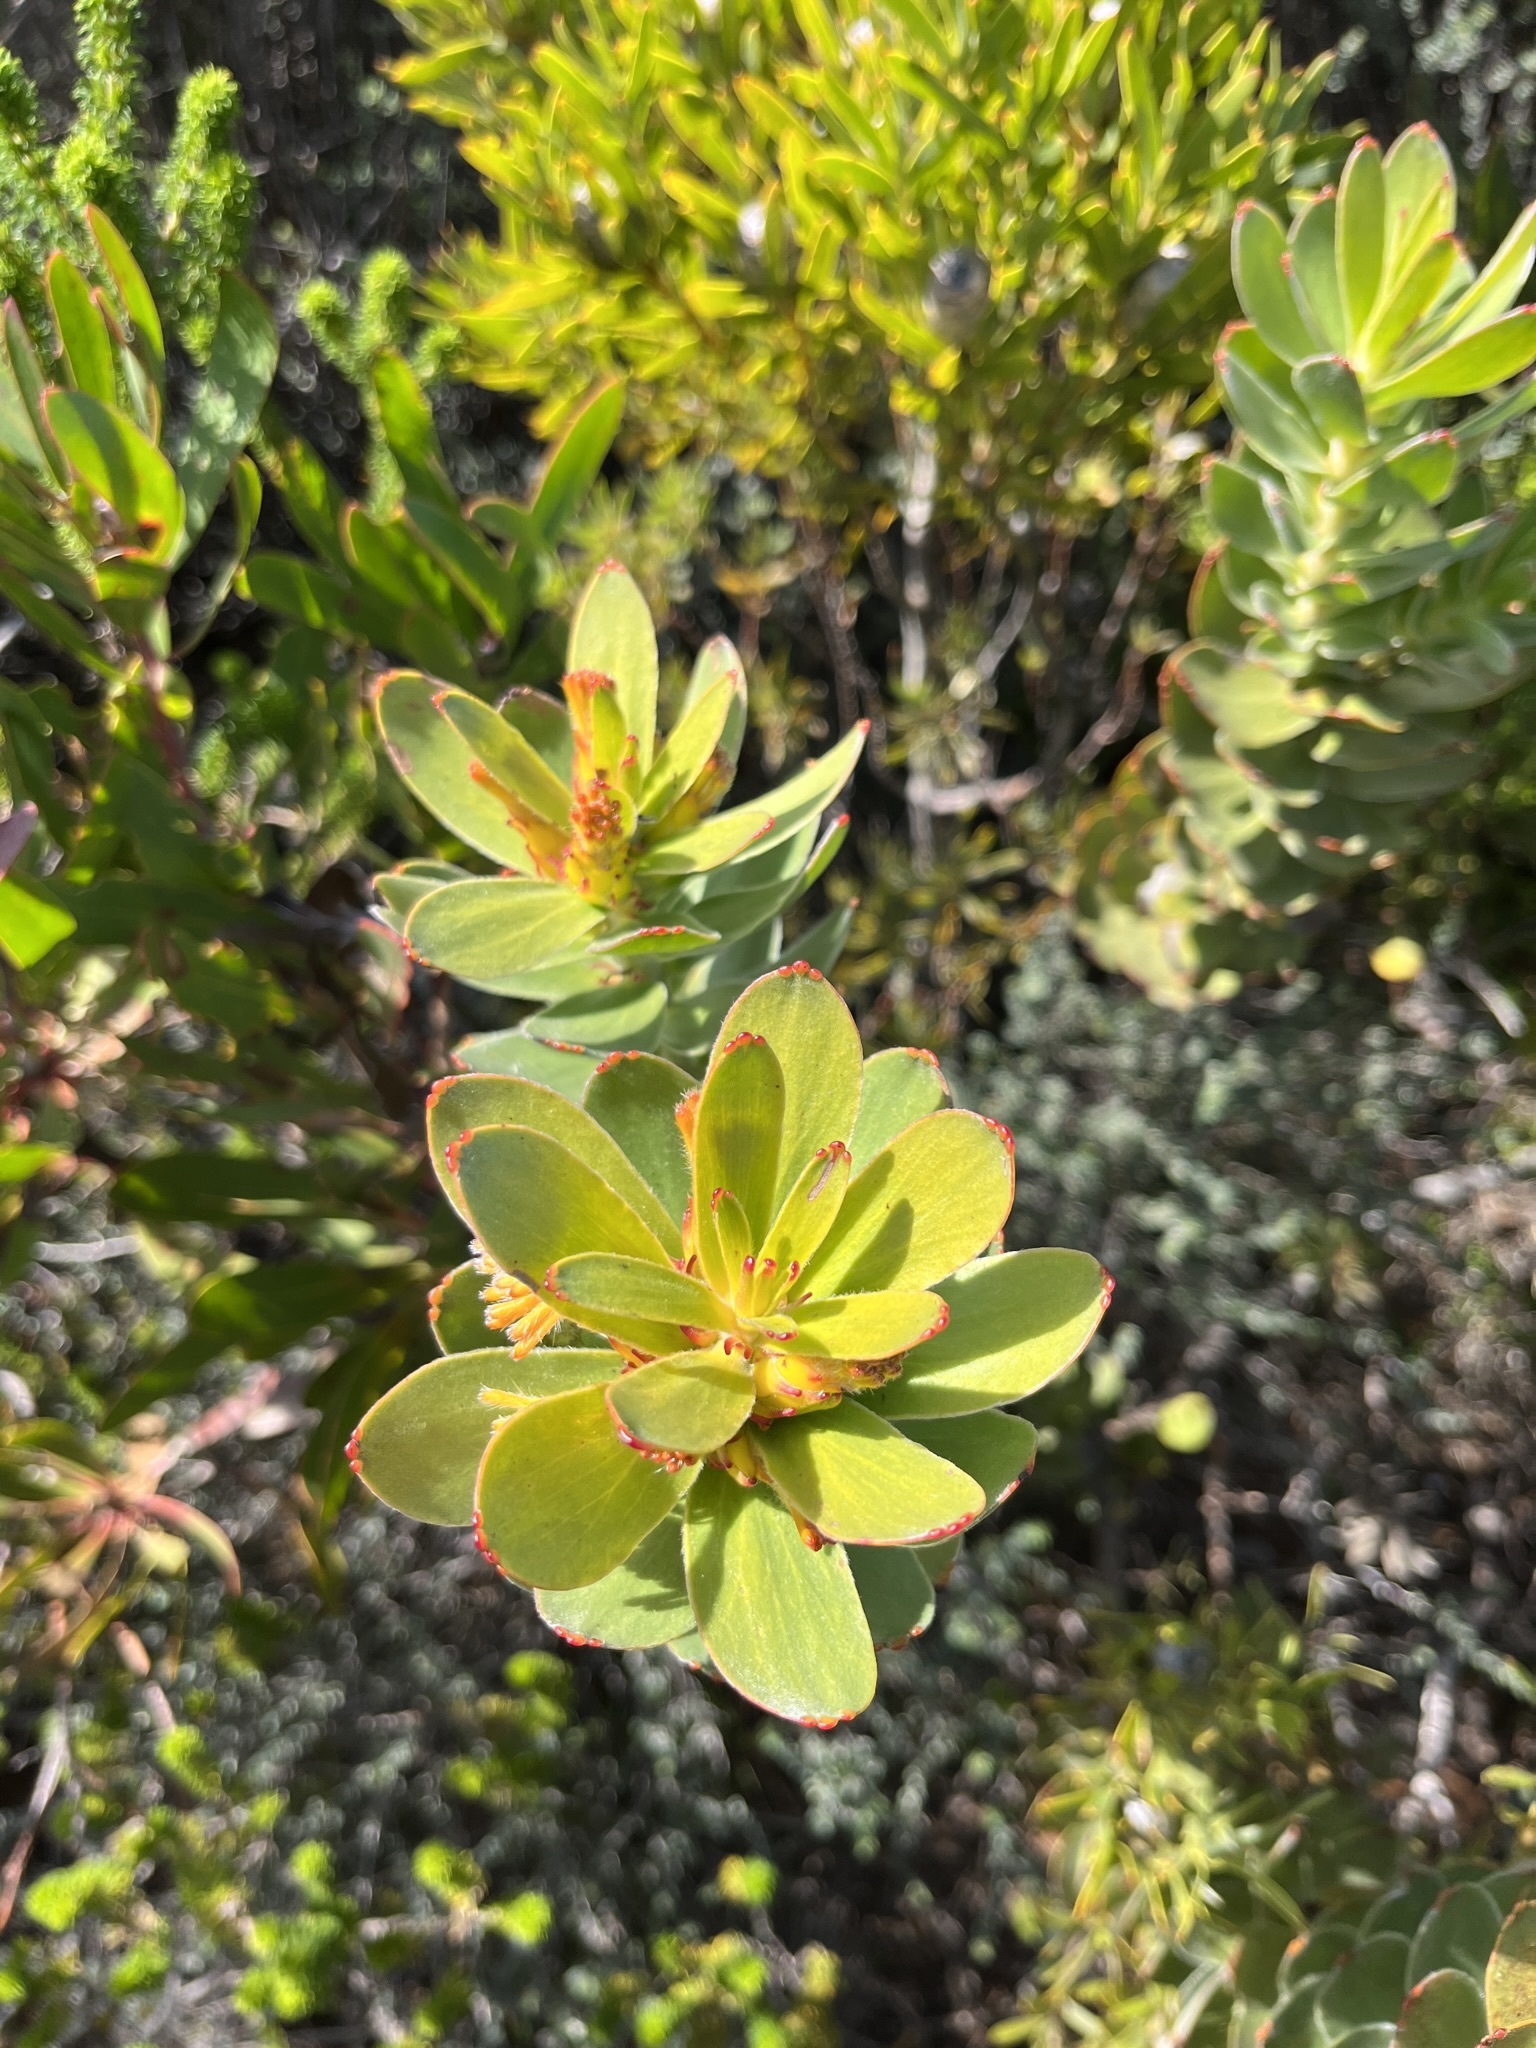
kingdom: Plantae
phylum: Tracheophyta
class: Magnoliopsida
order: Proteales
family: Proteaceae
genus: Mimetes
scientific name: Mimetes saxatilis
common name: Limestone pagoda
